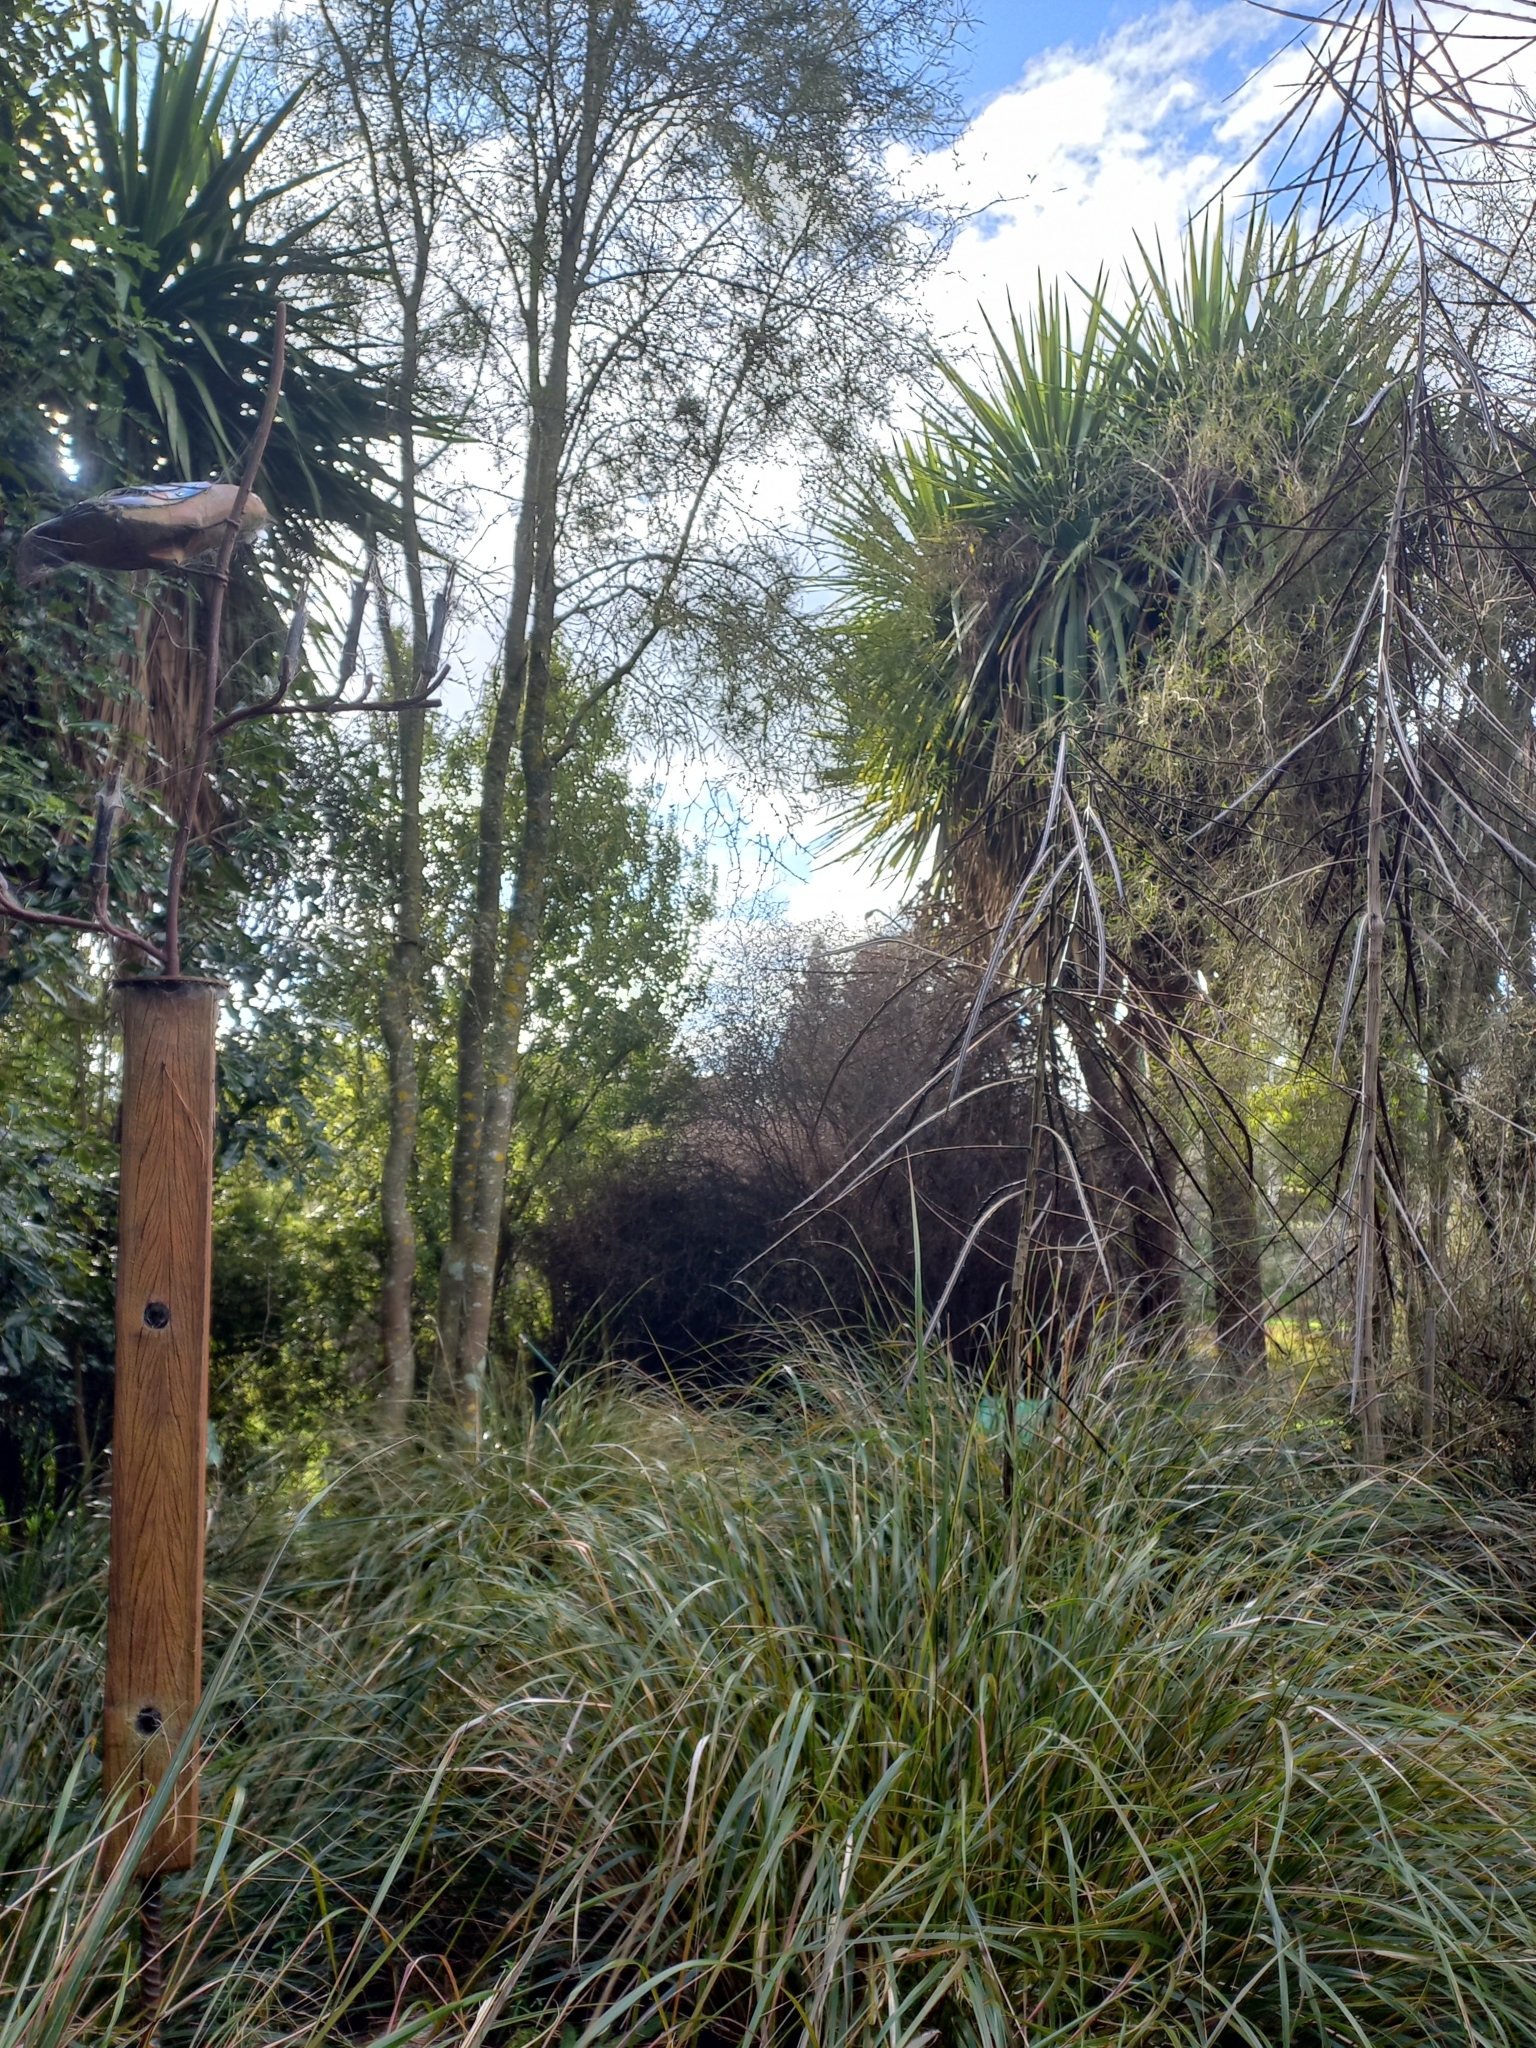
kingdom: Plantae
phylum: Tracheophyta
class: Magnoliopsida
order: Apiales
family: Araliaceae
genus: Pseudopanax
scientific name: Pseudopanax crassifolius
